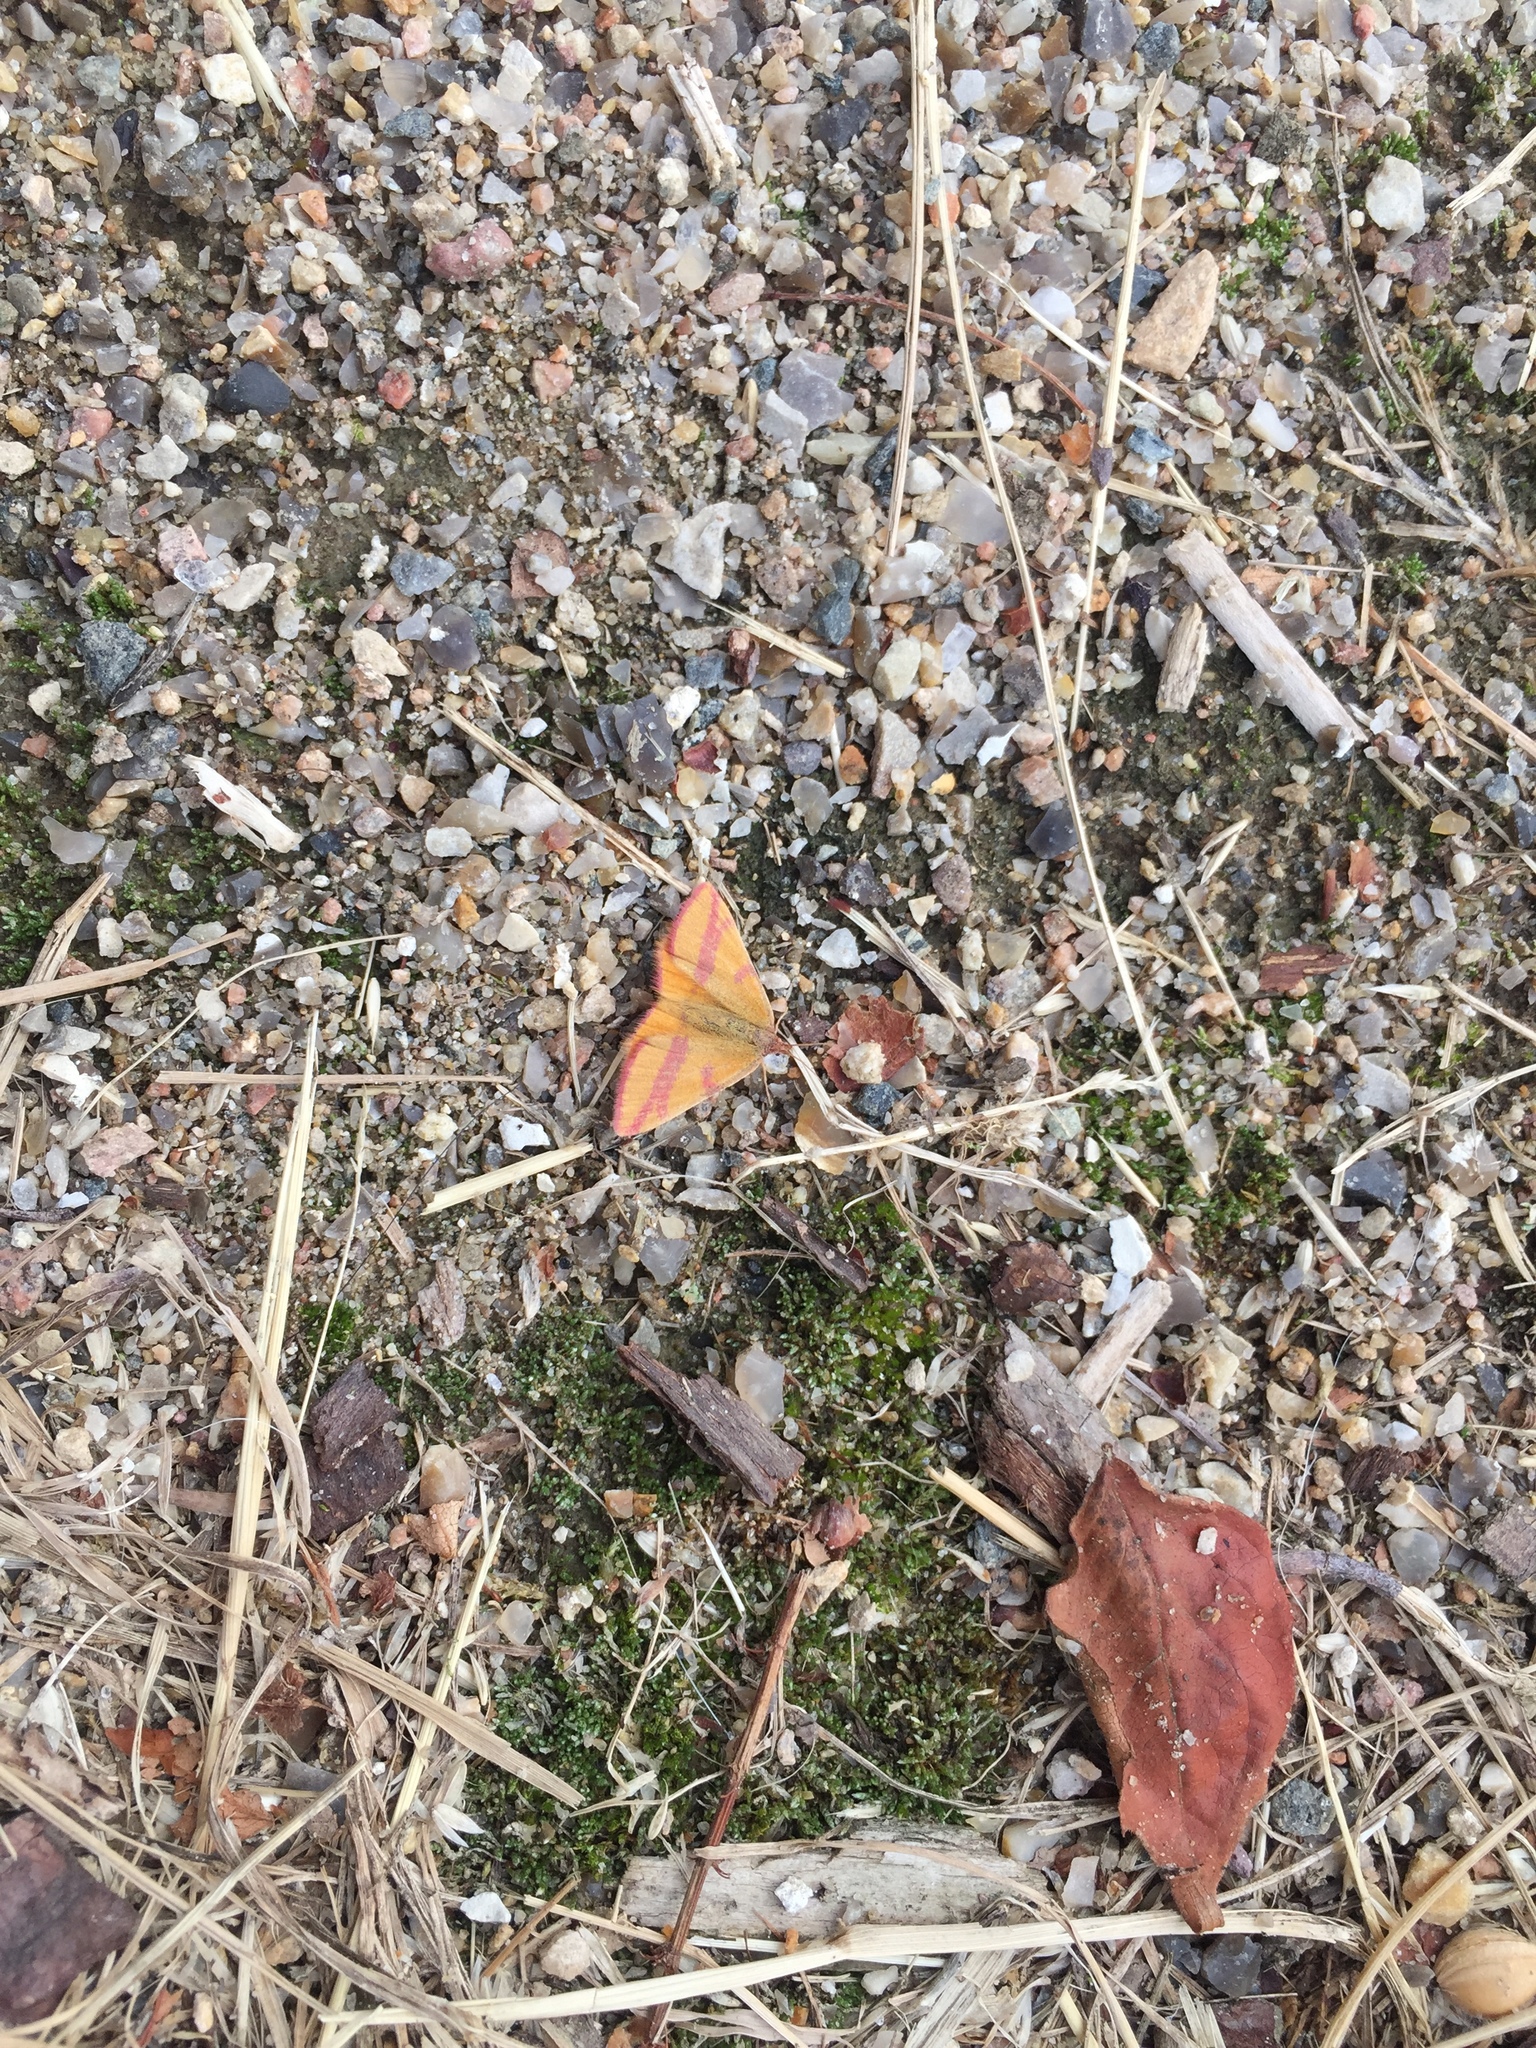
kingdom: Animalia
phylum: Arthropoda
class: Insecta
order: Lepidoptera
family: Geometridae
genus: Lythria
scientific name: Lythria cruentaria
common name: Purple-barred yellow
